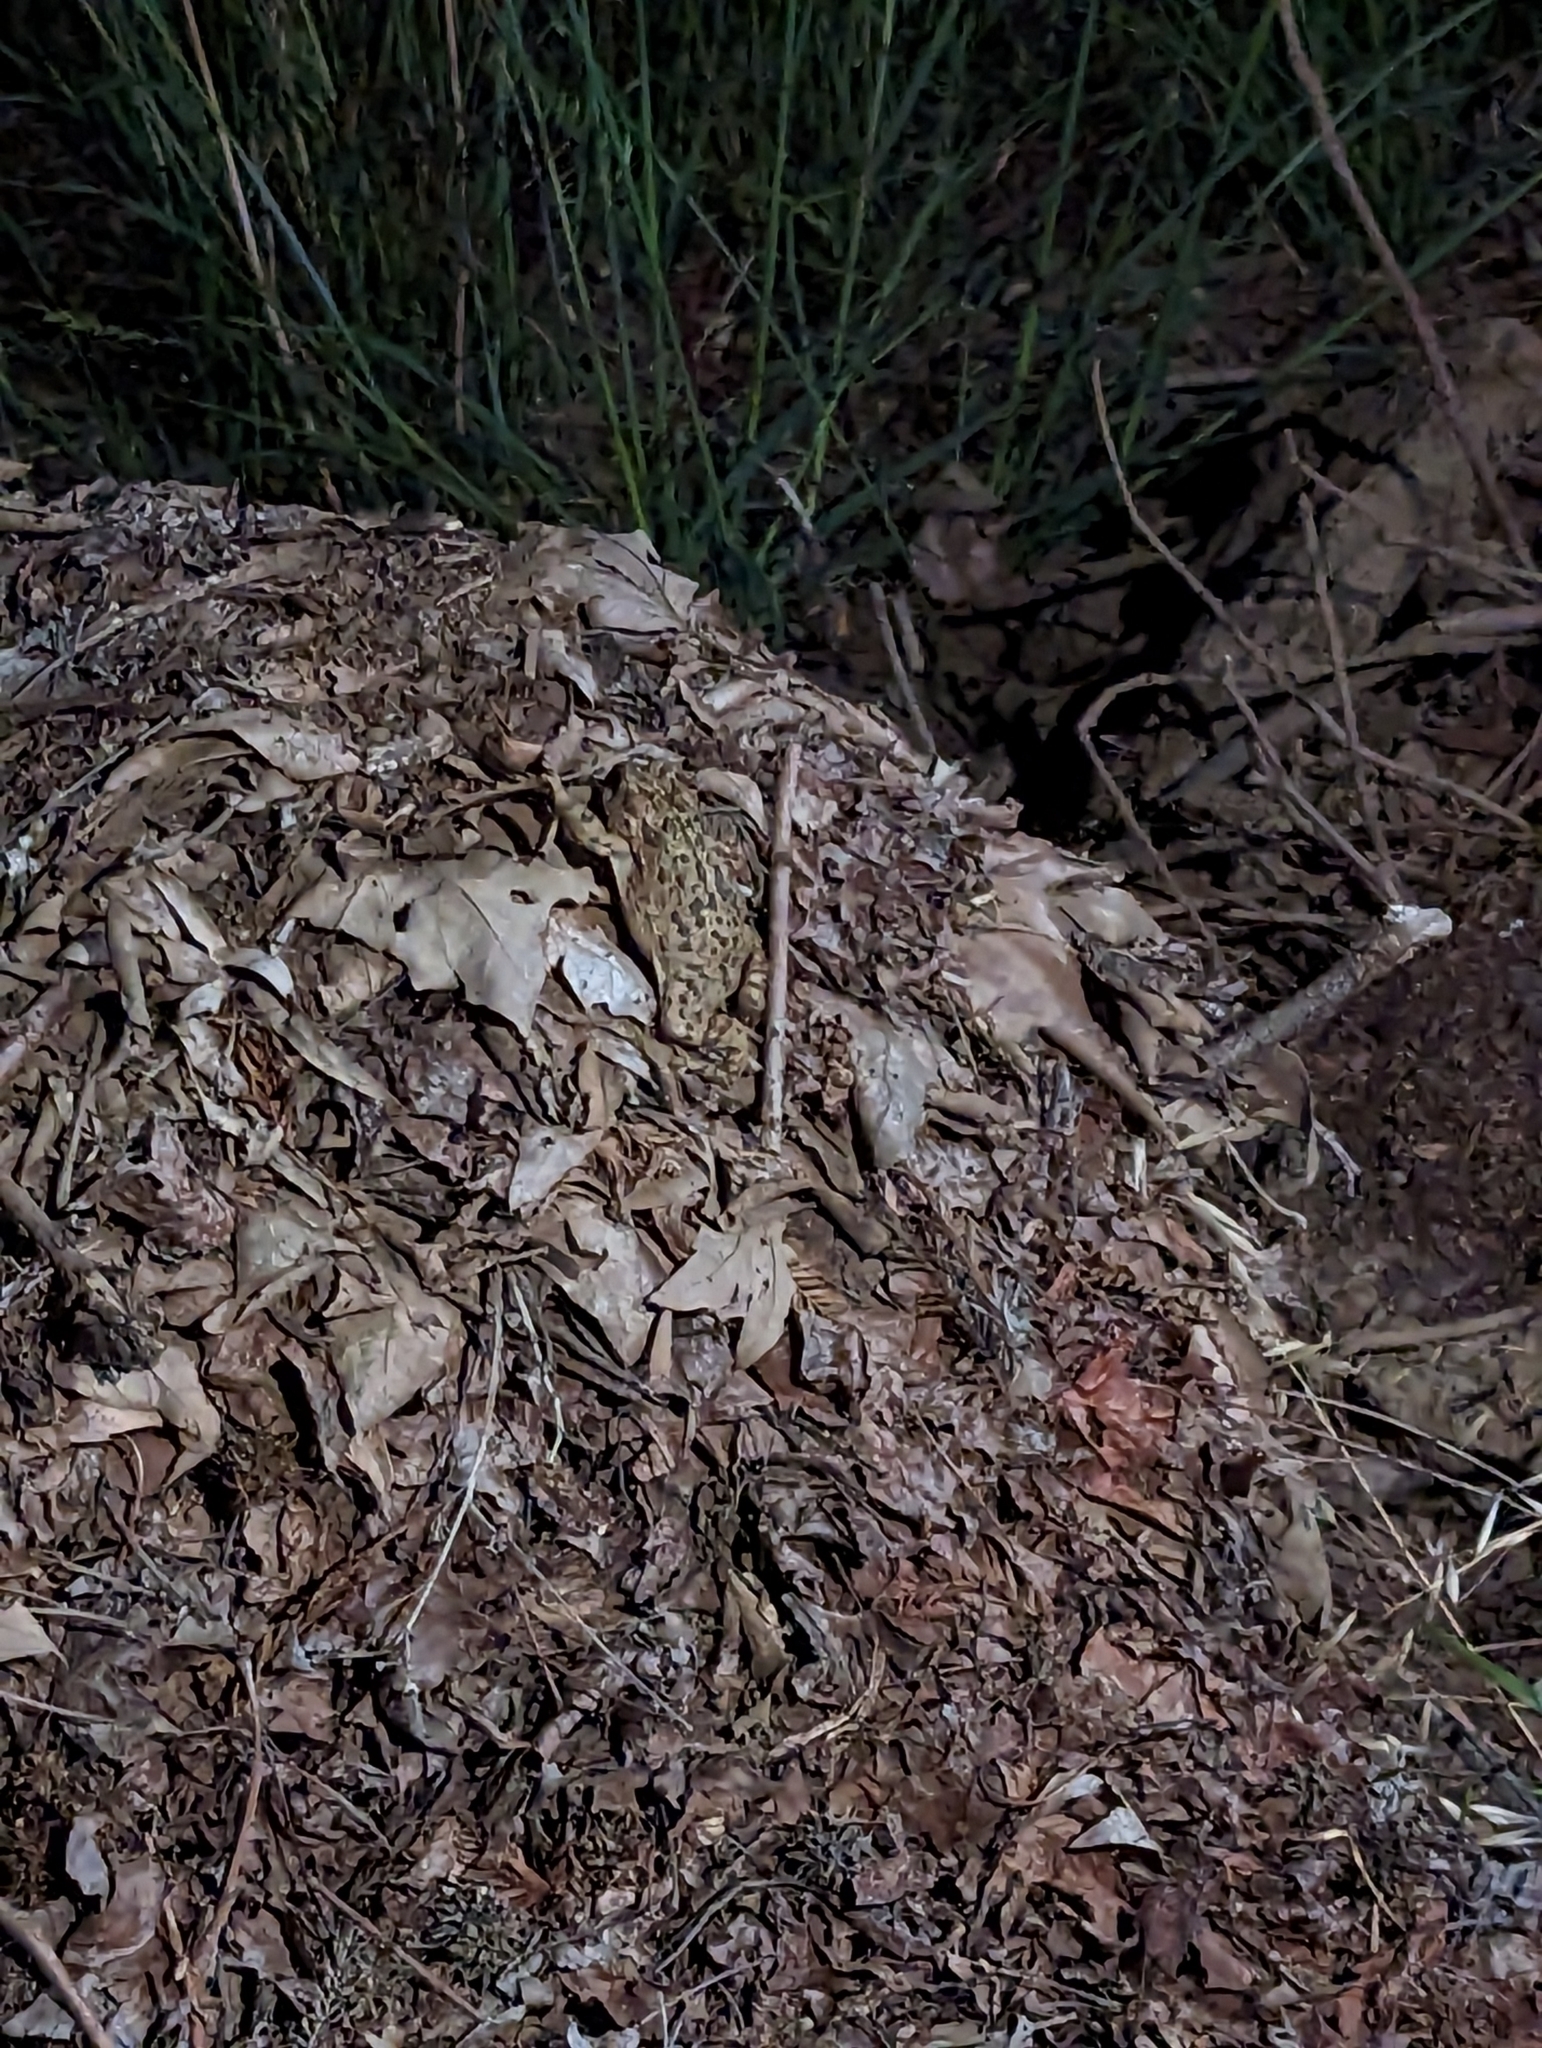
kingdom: Animalia
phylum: Chordata
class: Amphibia
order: Anura
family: Bufonidae
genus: Anaxyrus
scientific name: Anaxyrus boreas
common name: Western toad
